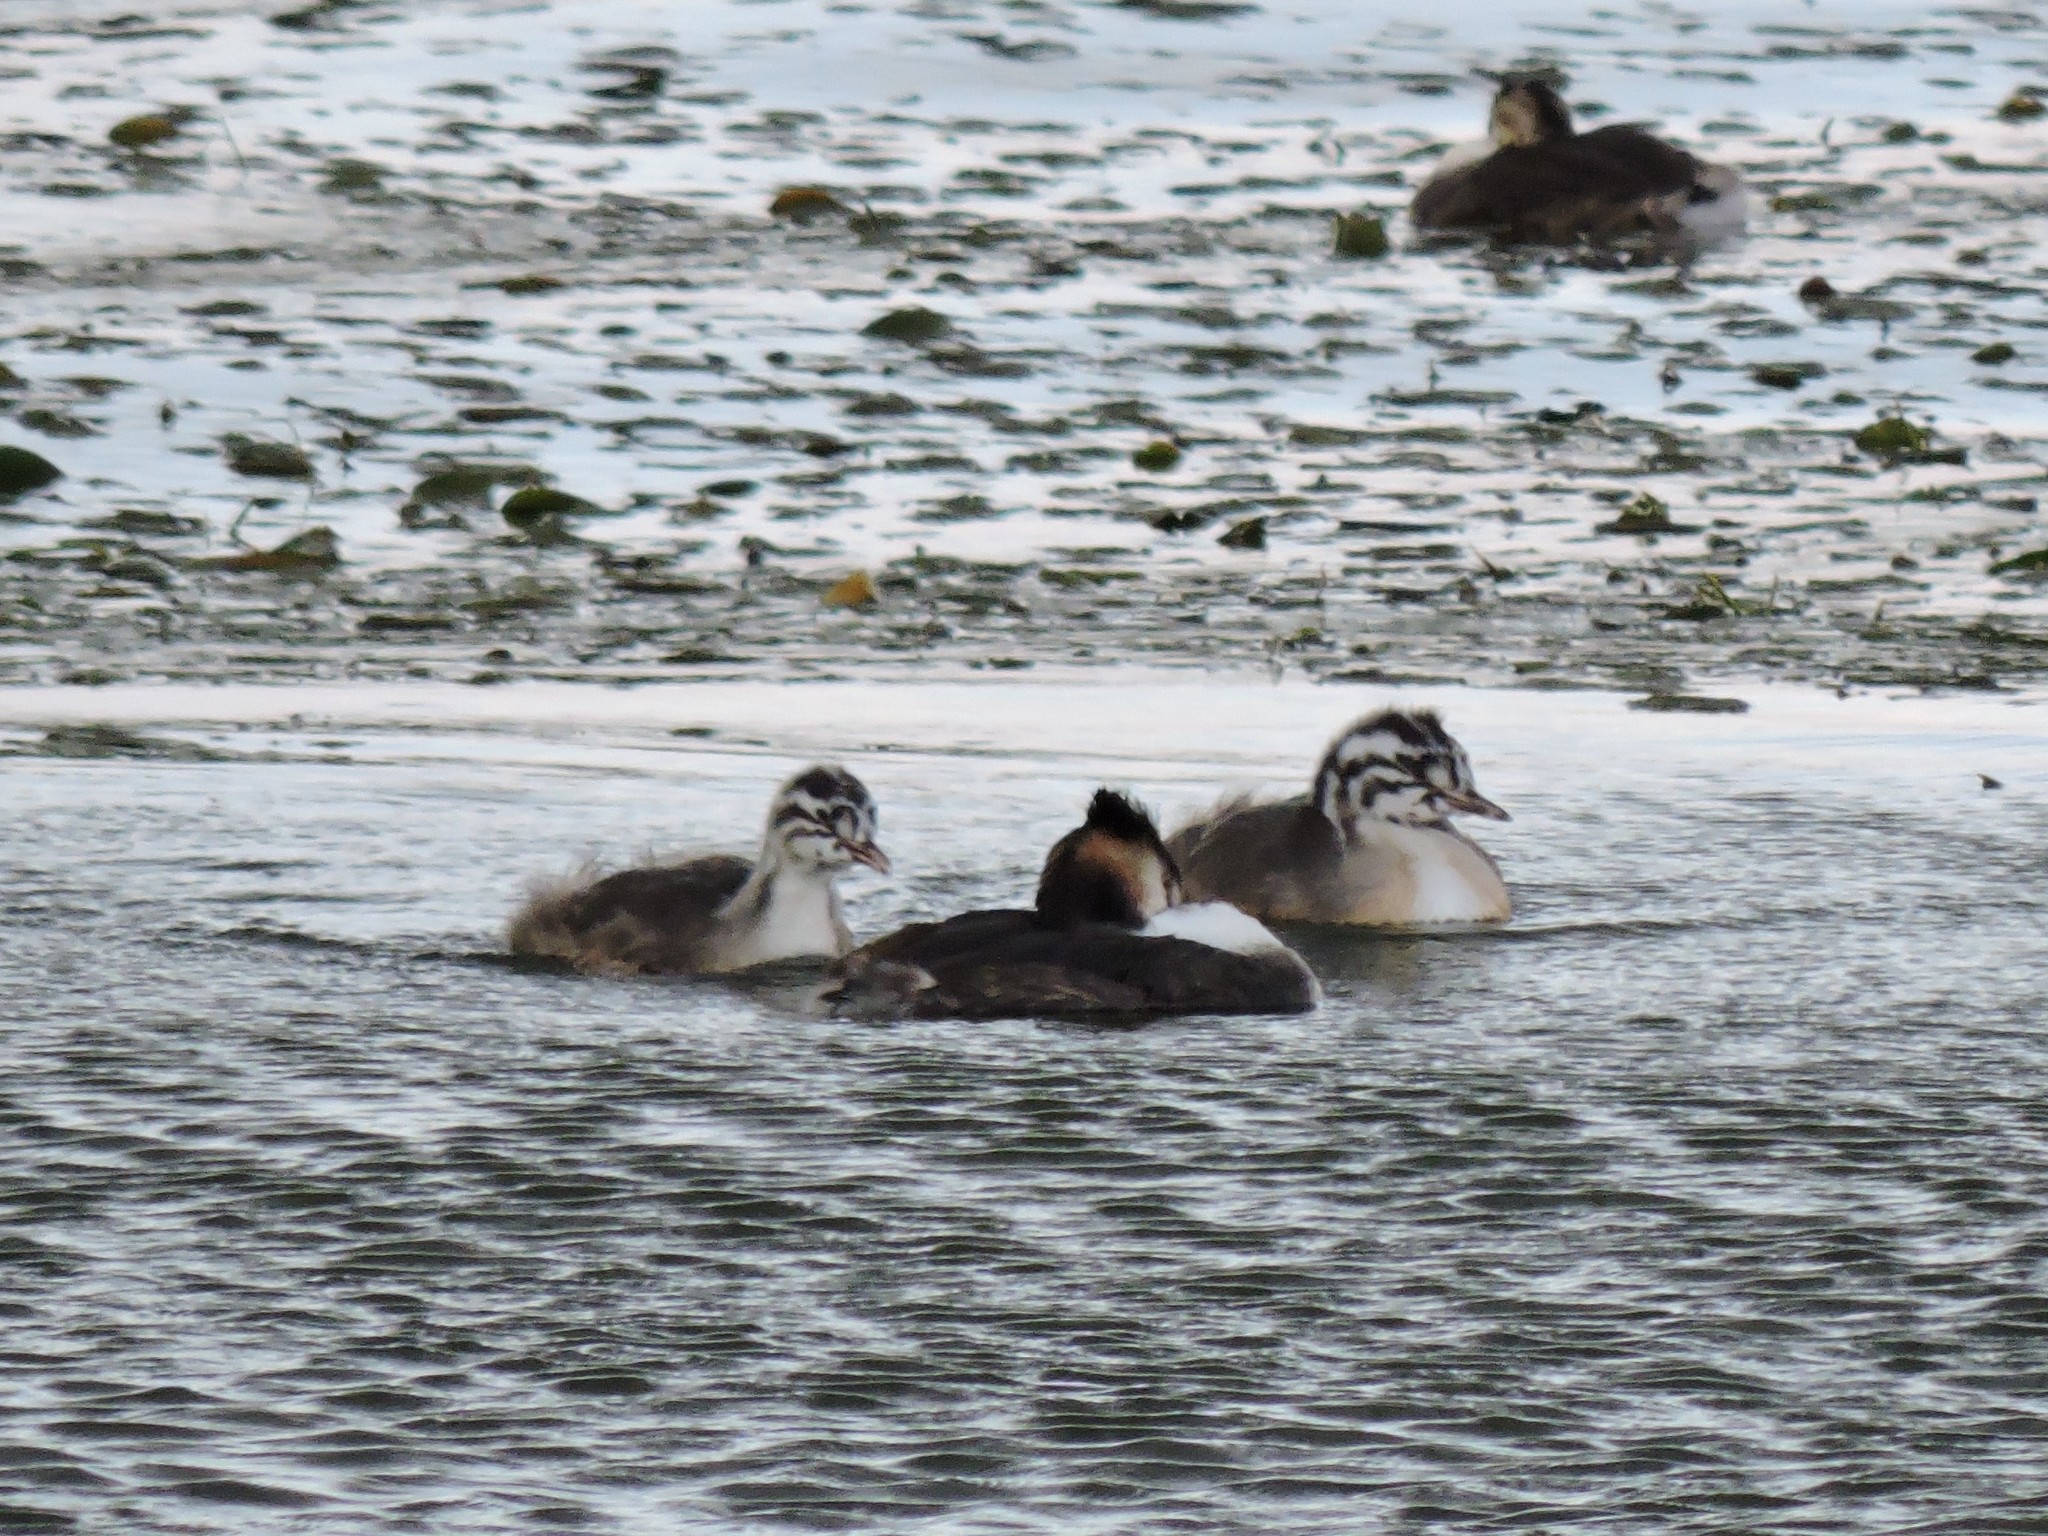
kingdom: Animalia
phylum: Chordata
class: Aves
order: Podicipediformes
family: Podicipedidae
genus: Podiceps
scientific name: Podiceps cristatus
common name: Great crested grebe
